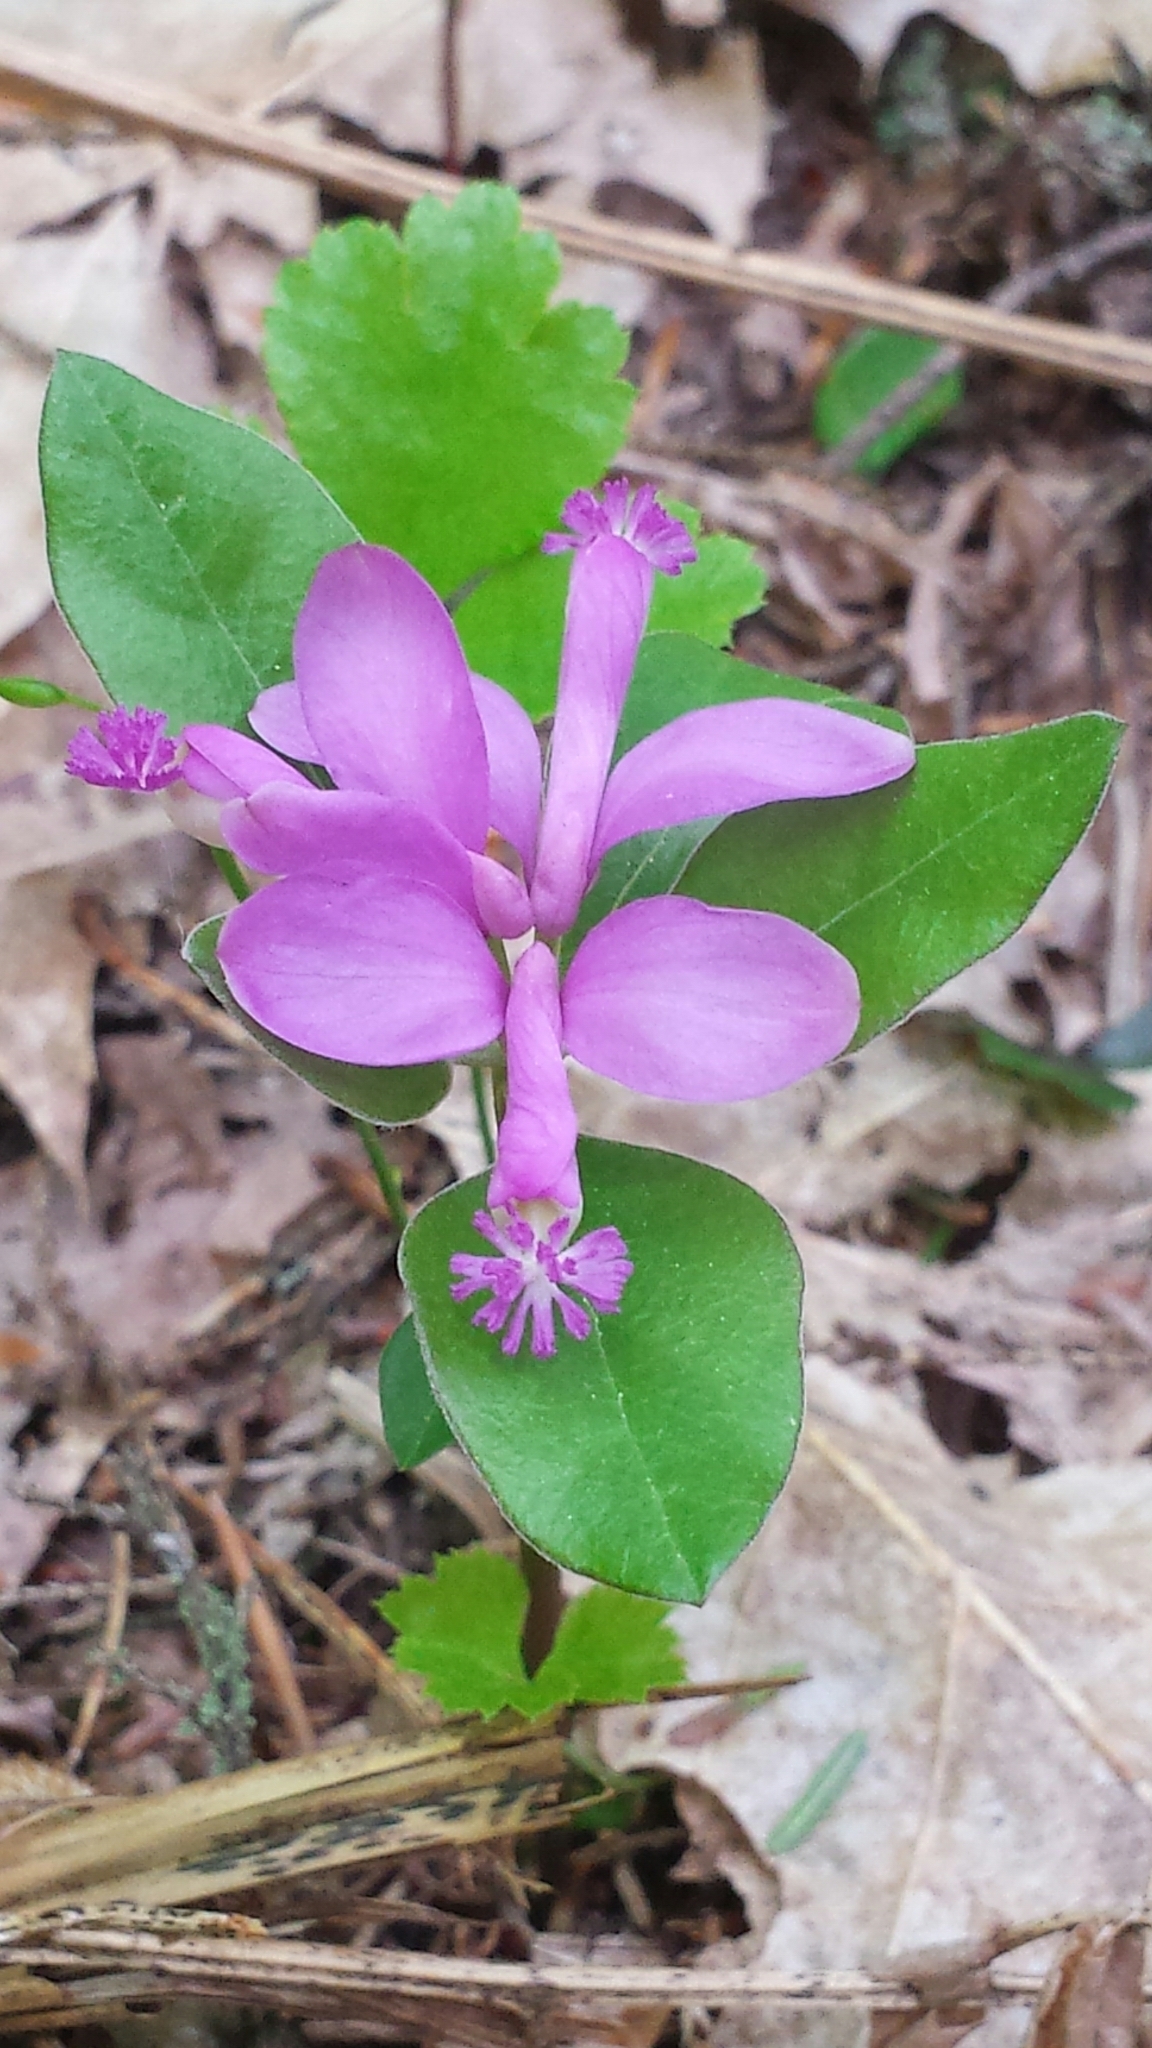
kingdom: Plantae
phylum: Tracheophyta
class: Magnoliopsida
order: Fabales
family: Polygalaceae
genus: Polygaloides
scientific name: Polygaloides paucifolia
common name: Bird-on-the-wing
